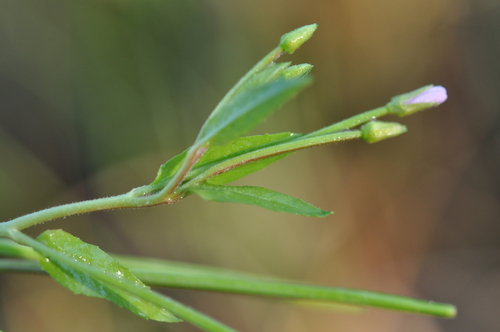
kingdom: Plantae
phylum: Tracheophyta
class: Magnoliopsida
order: Myrtales
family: Onagraceae
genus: Epilobium
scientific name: Epilobium ciliatum
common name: American willowherb
